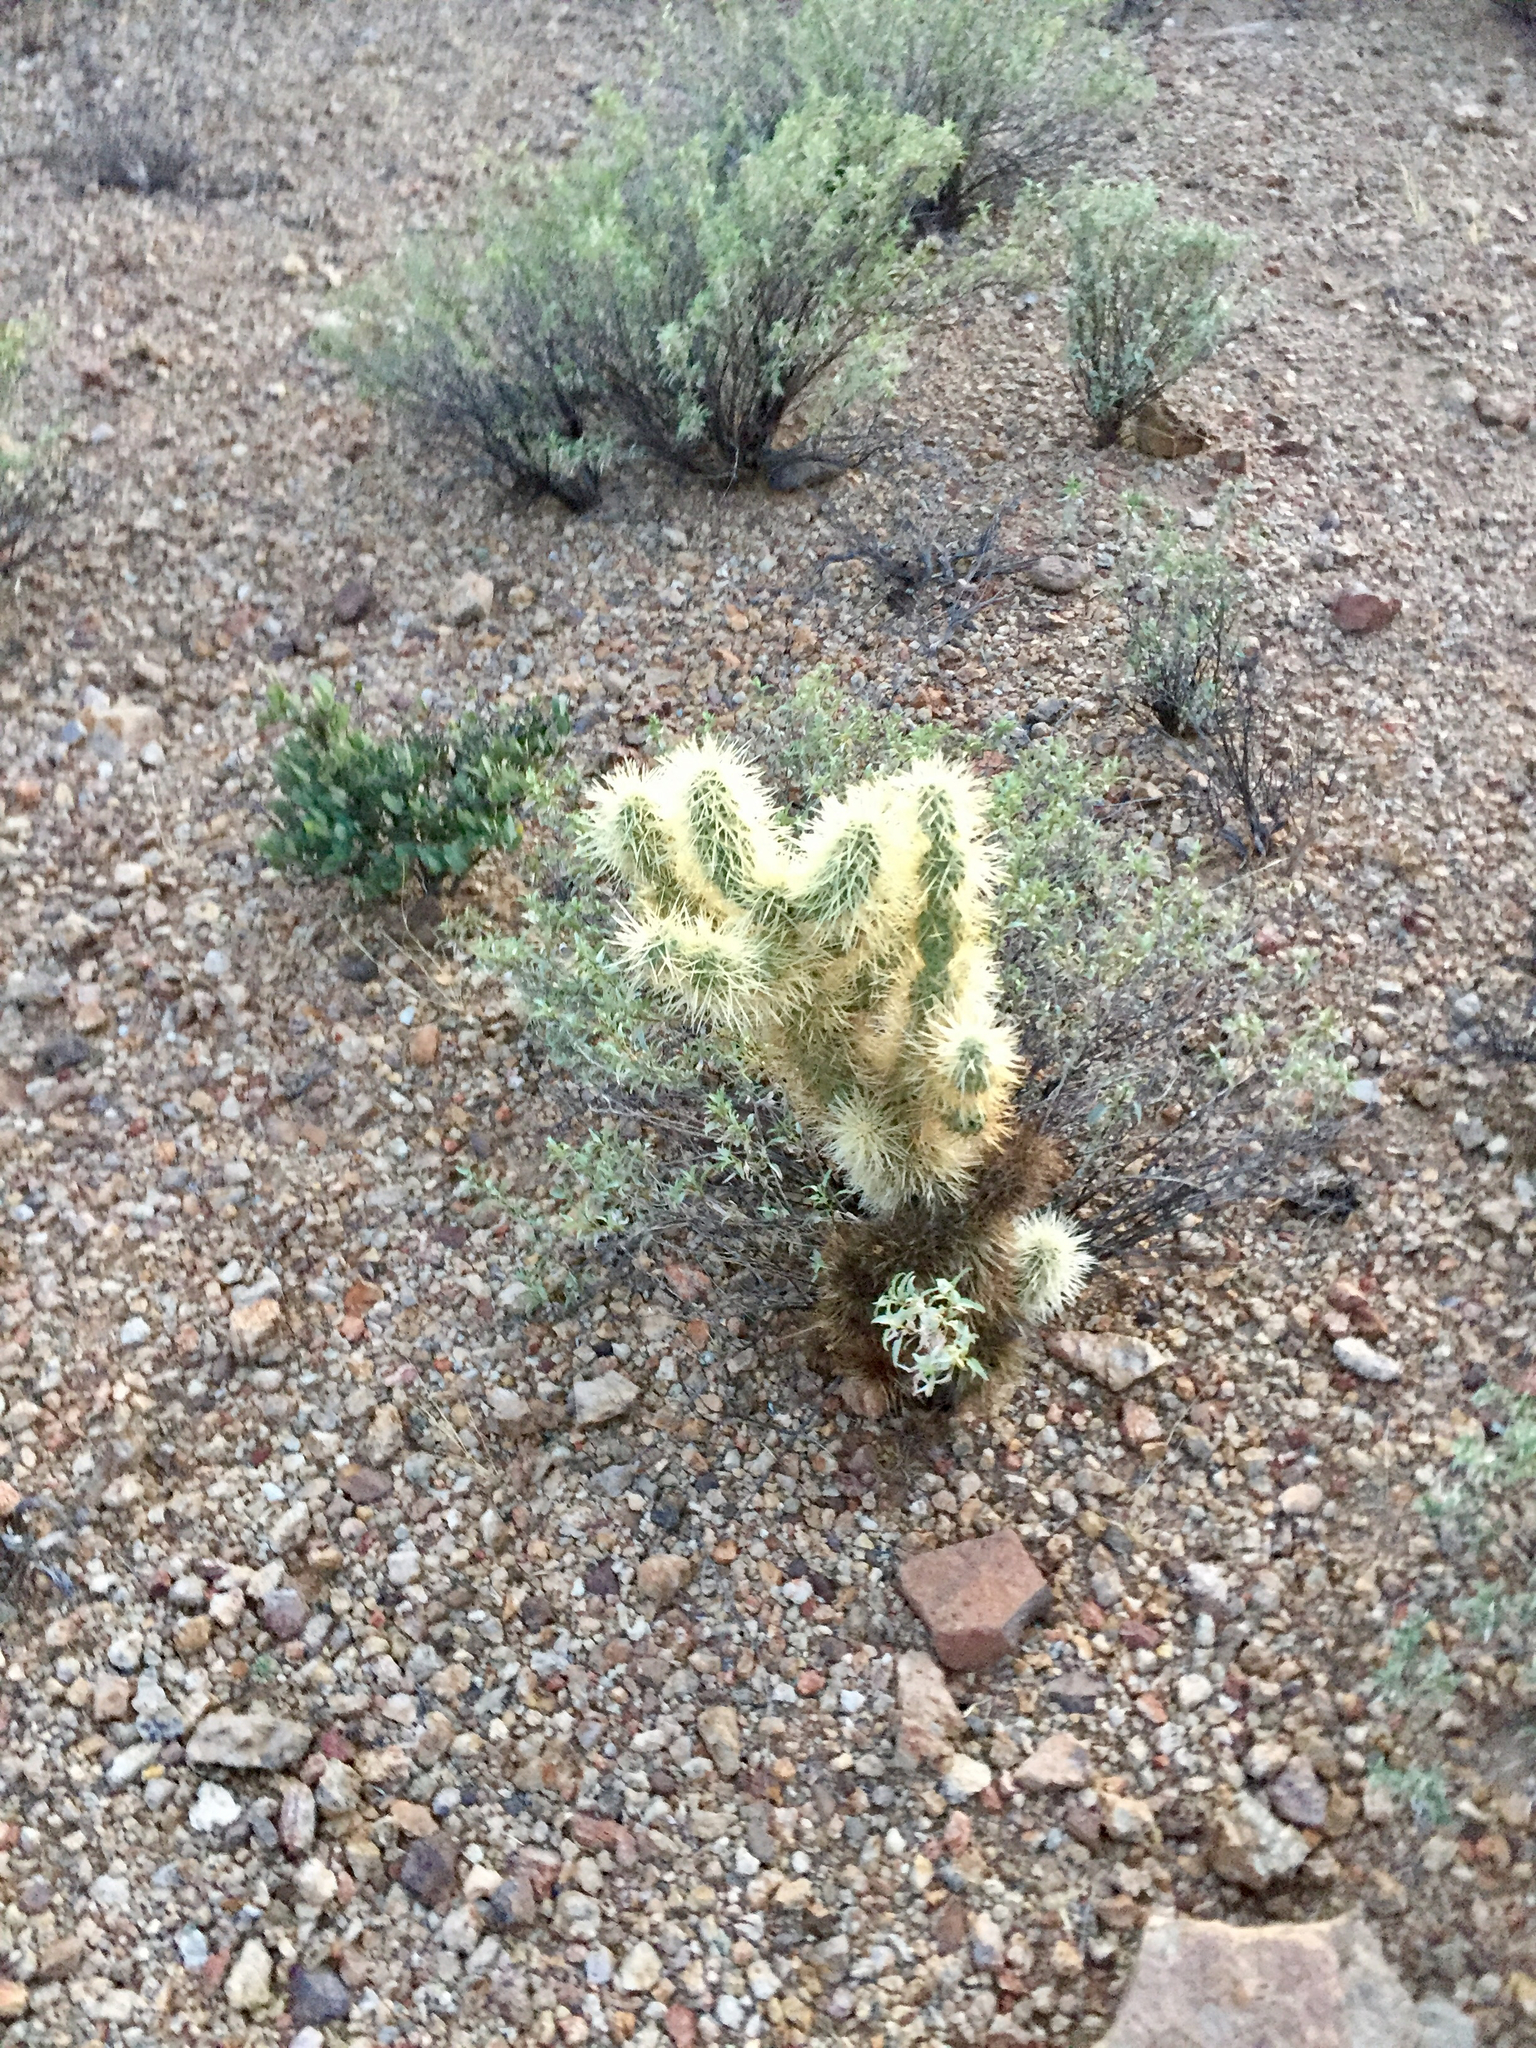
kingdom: Plantae
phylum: Tracheophyta
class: Magnoliopsida
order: Caryophyllales
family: Cactaceae
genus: Cylindropuntia
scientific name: Cylindropuntia fosbergii
